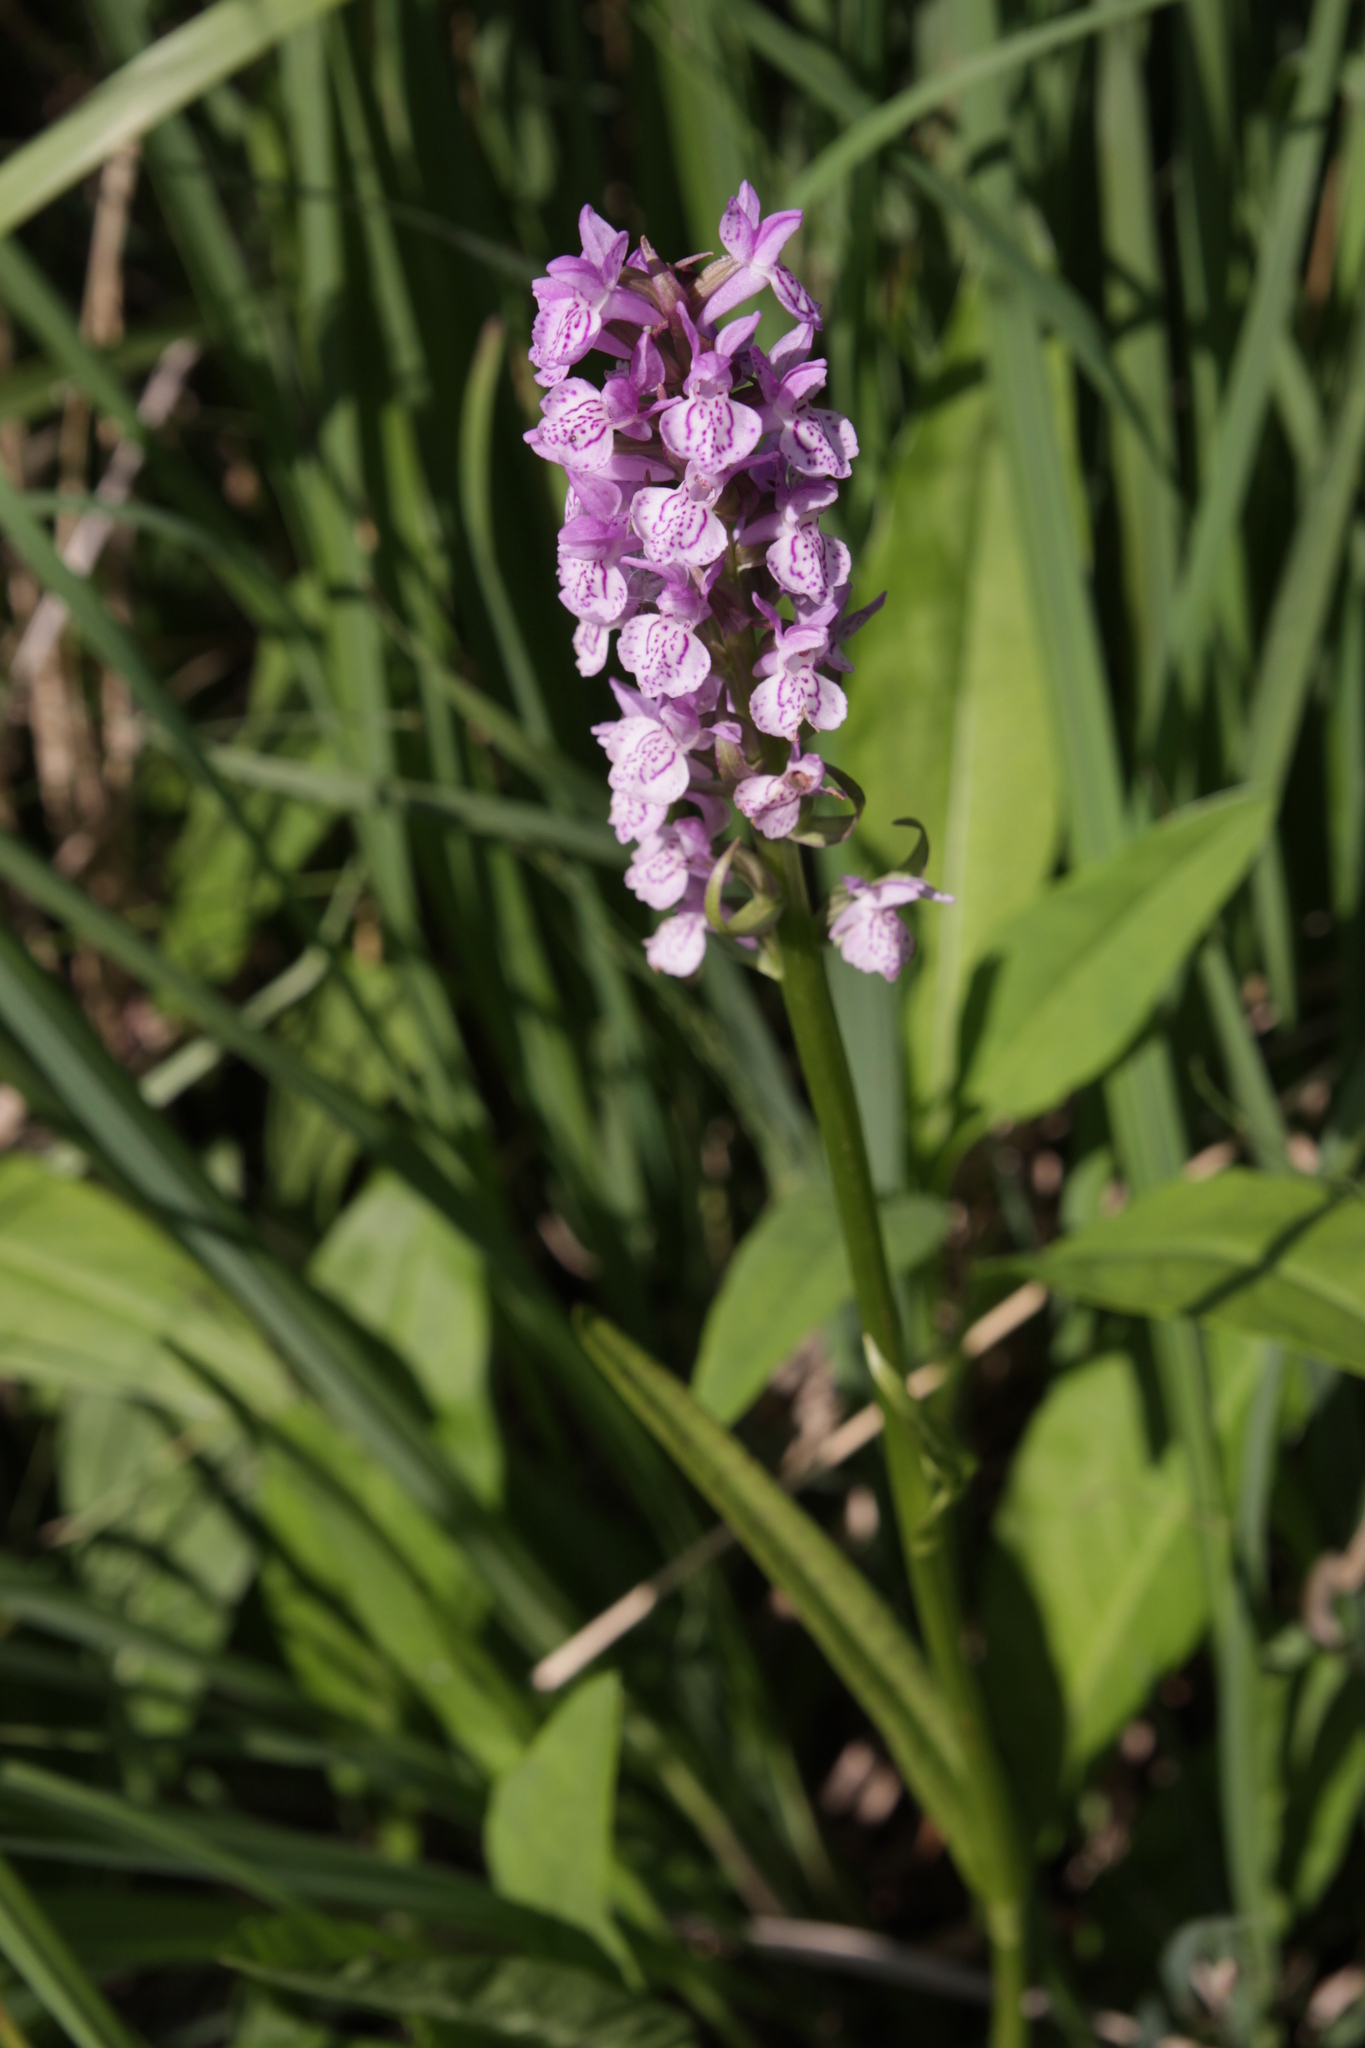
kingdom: Plantae
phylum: Tracheophyta
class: Liliopsida
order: Asparagales
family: Orchidaceae
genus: Dactylorhiza
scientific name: Dactylorhiza majalis
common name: Marsh orchid
